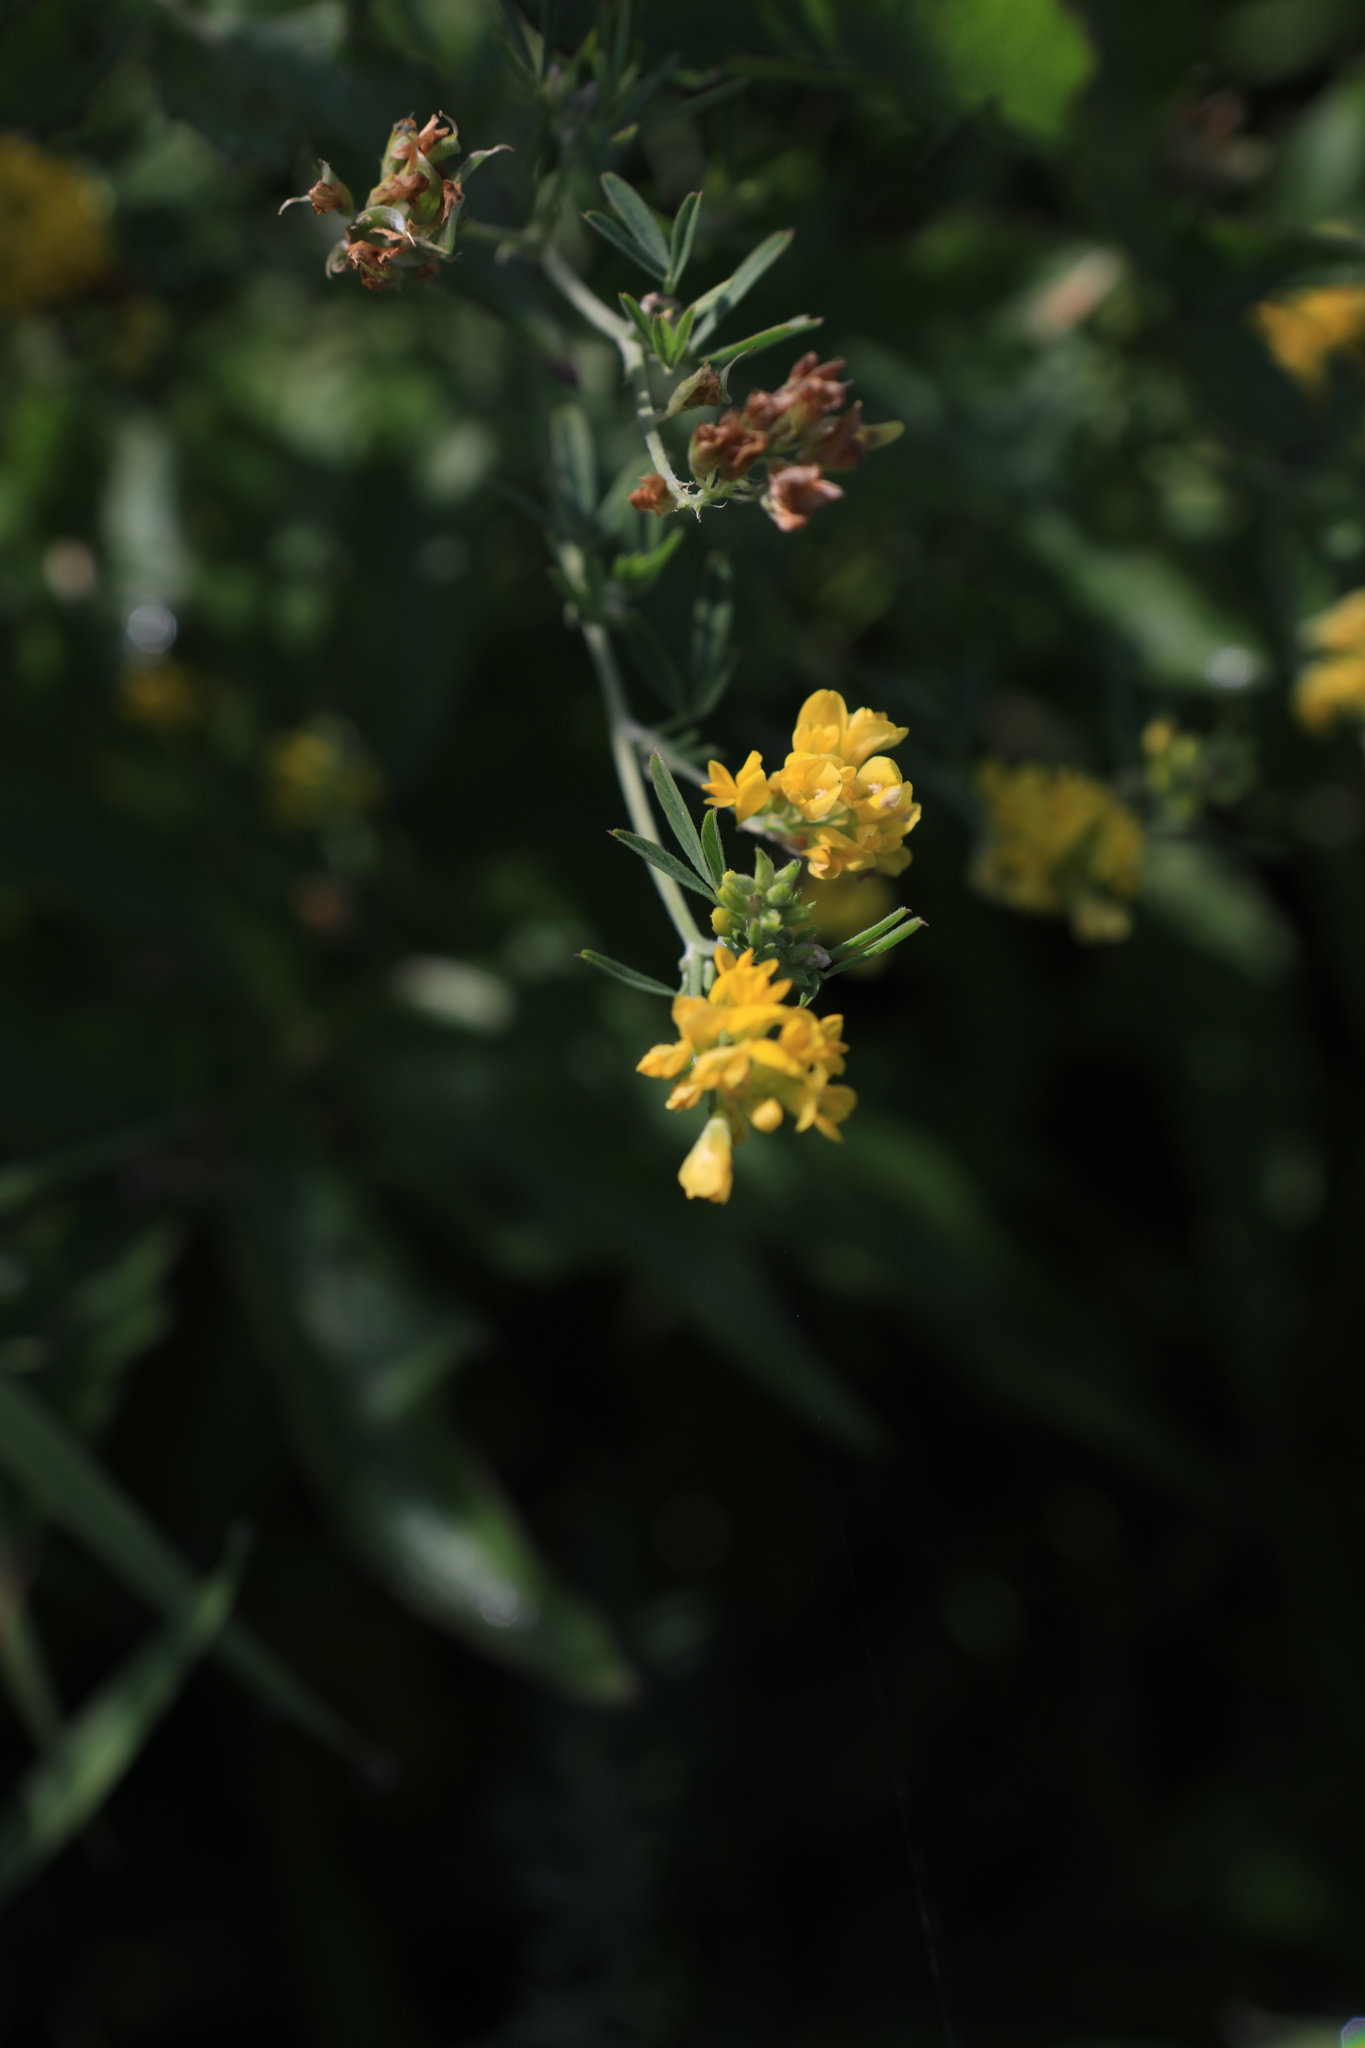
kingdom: Plantae
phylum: Tracheophyta
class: Magnoliopsida
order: Fabales
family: Fabaceae
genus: Medicago
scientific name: Medicago falcata
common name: Sickle medick
